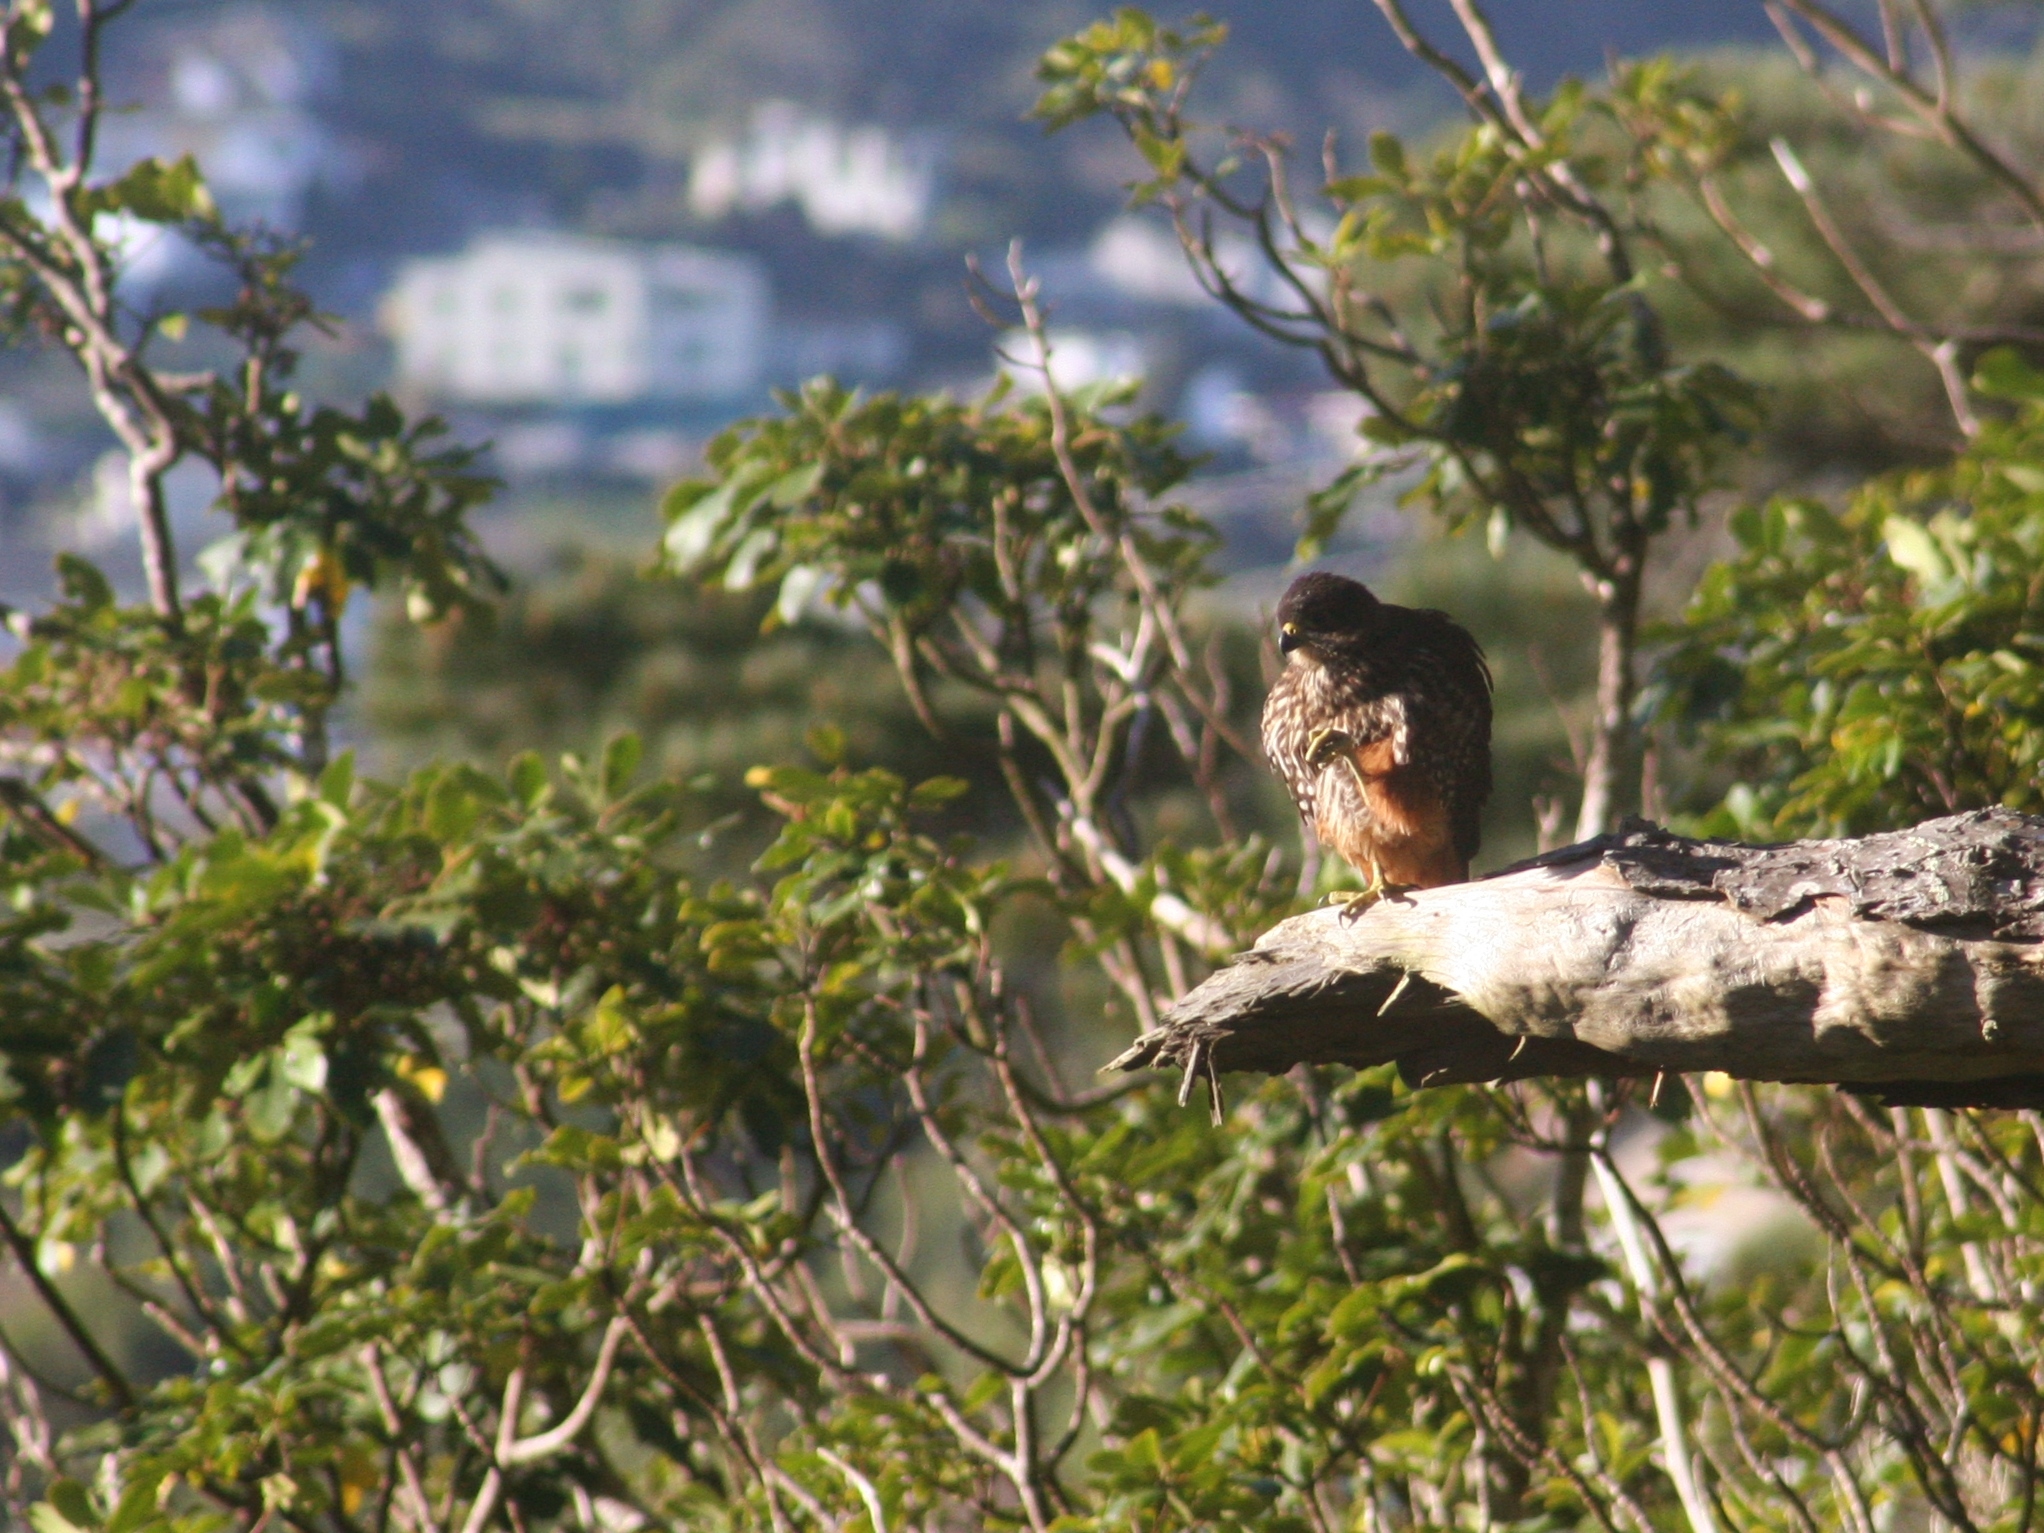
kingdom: Animalia
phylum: Chordata
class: Aves
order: Falconiformes
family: Falconidae
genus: Falco
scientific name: Falco novaeseelandiae
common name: New zealand falcon
